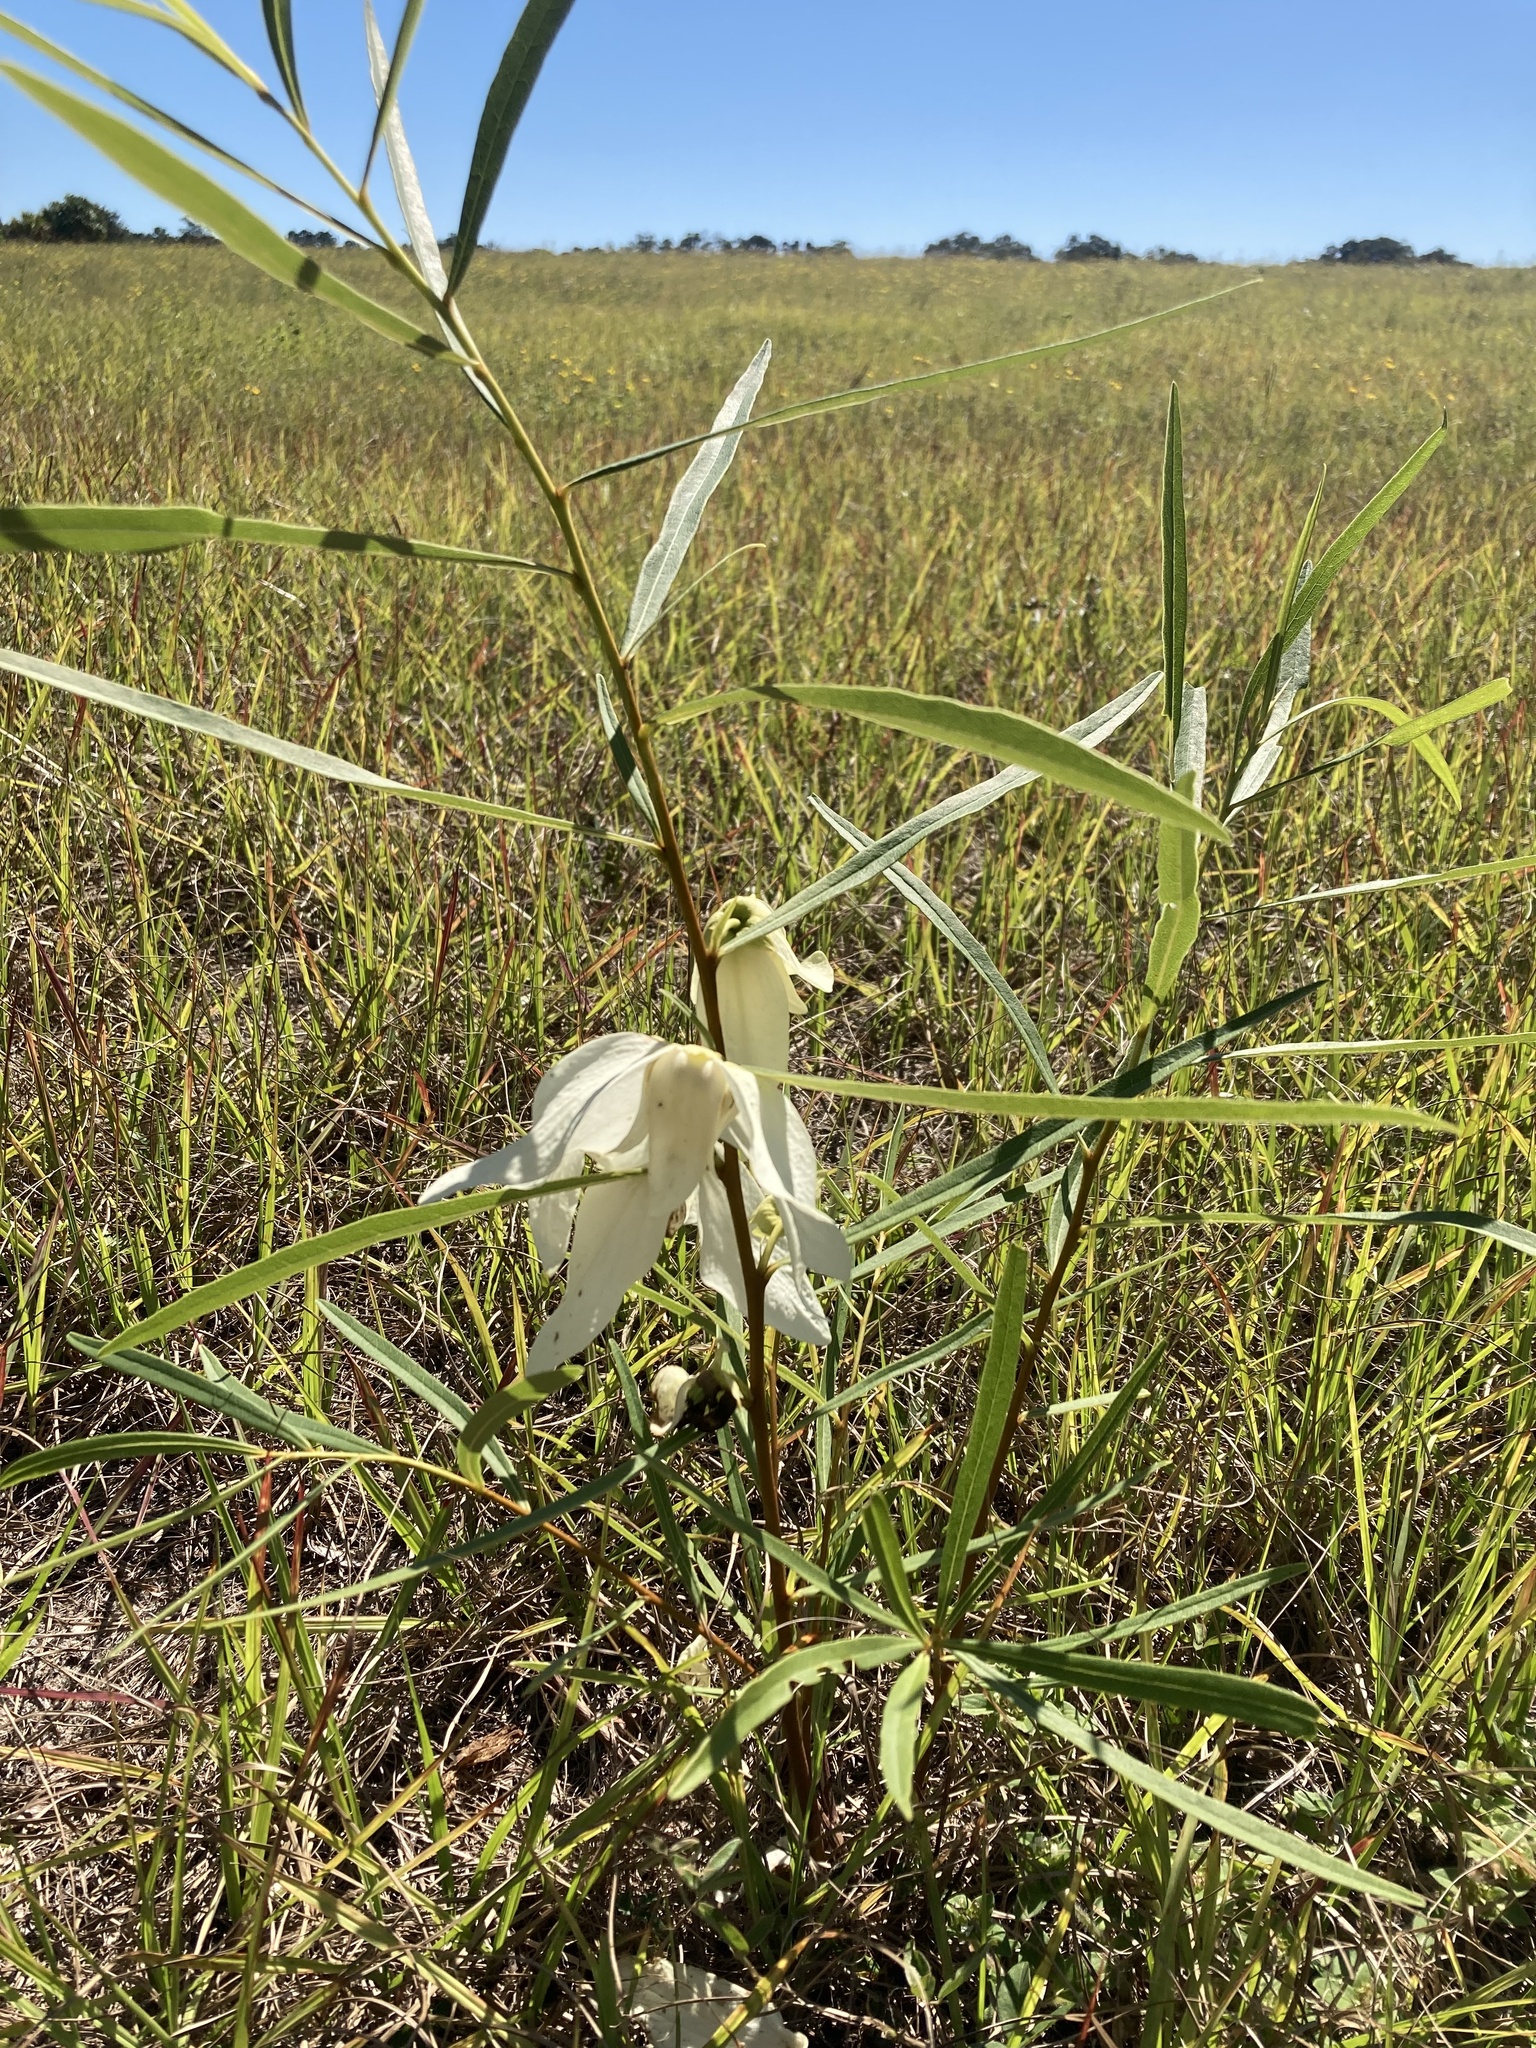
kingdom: Plantae
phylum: Tracheophyta
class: Magnoliopsida
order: Magnoliales
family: Annonaceae
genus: Asimina
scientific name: Asimina longifolia
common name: Polecatbush
